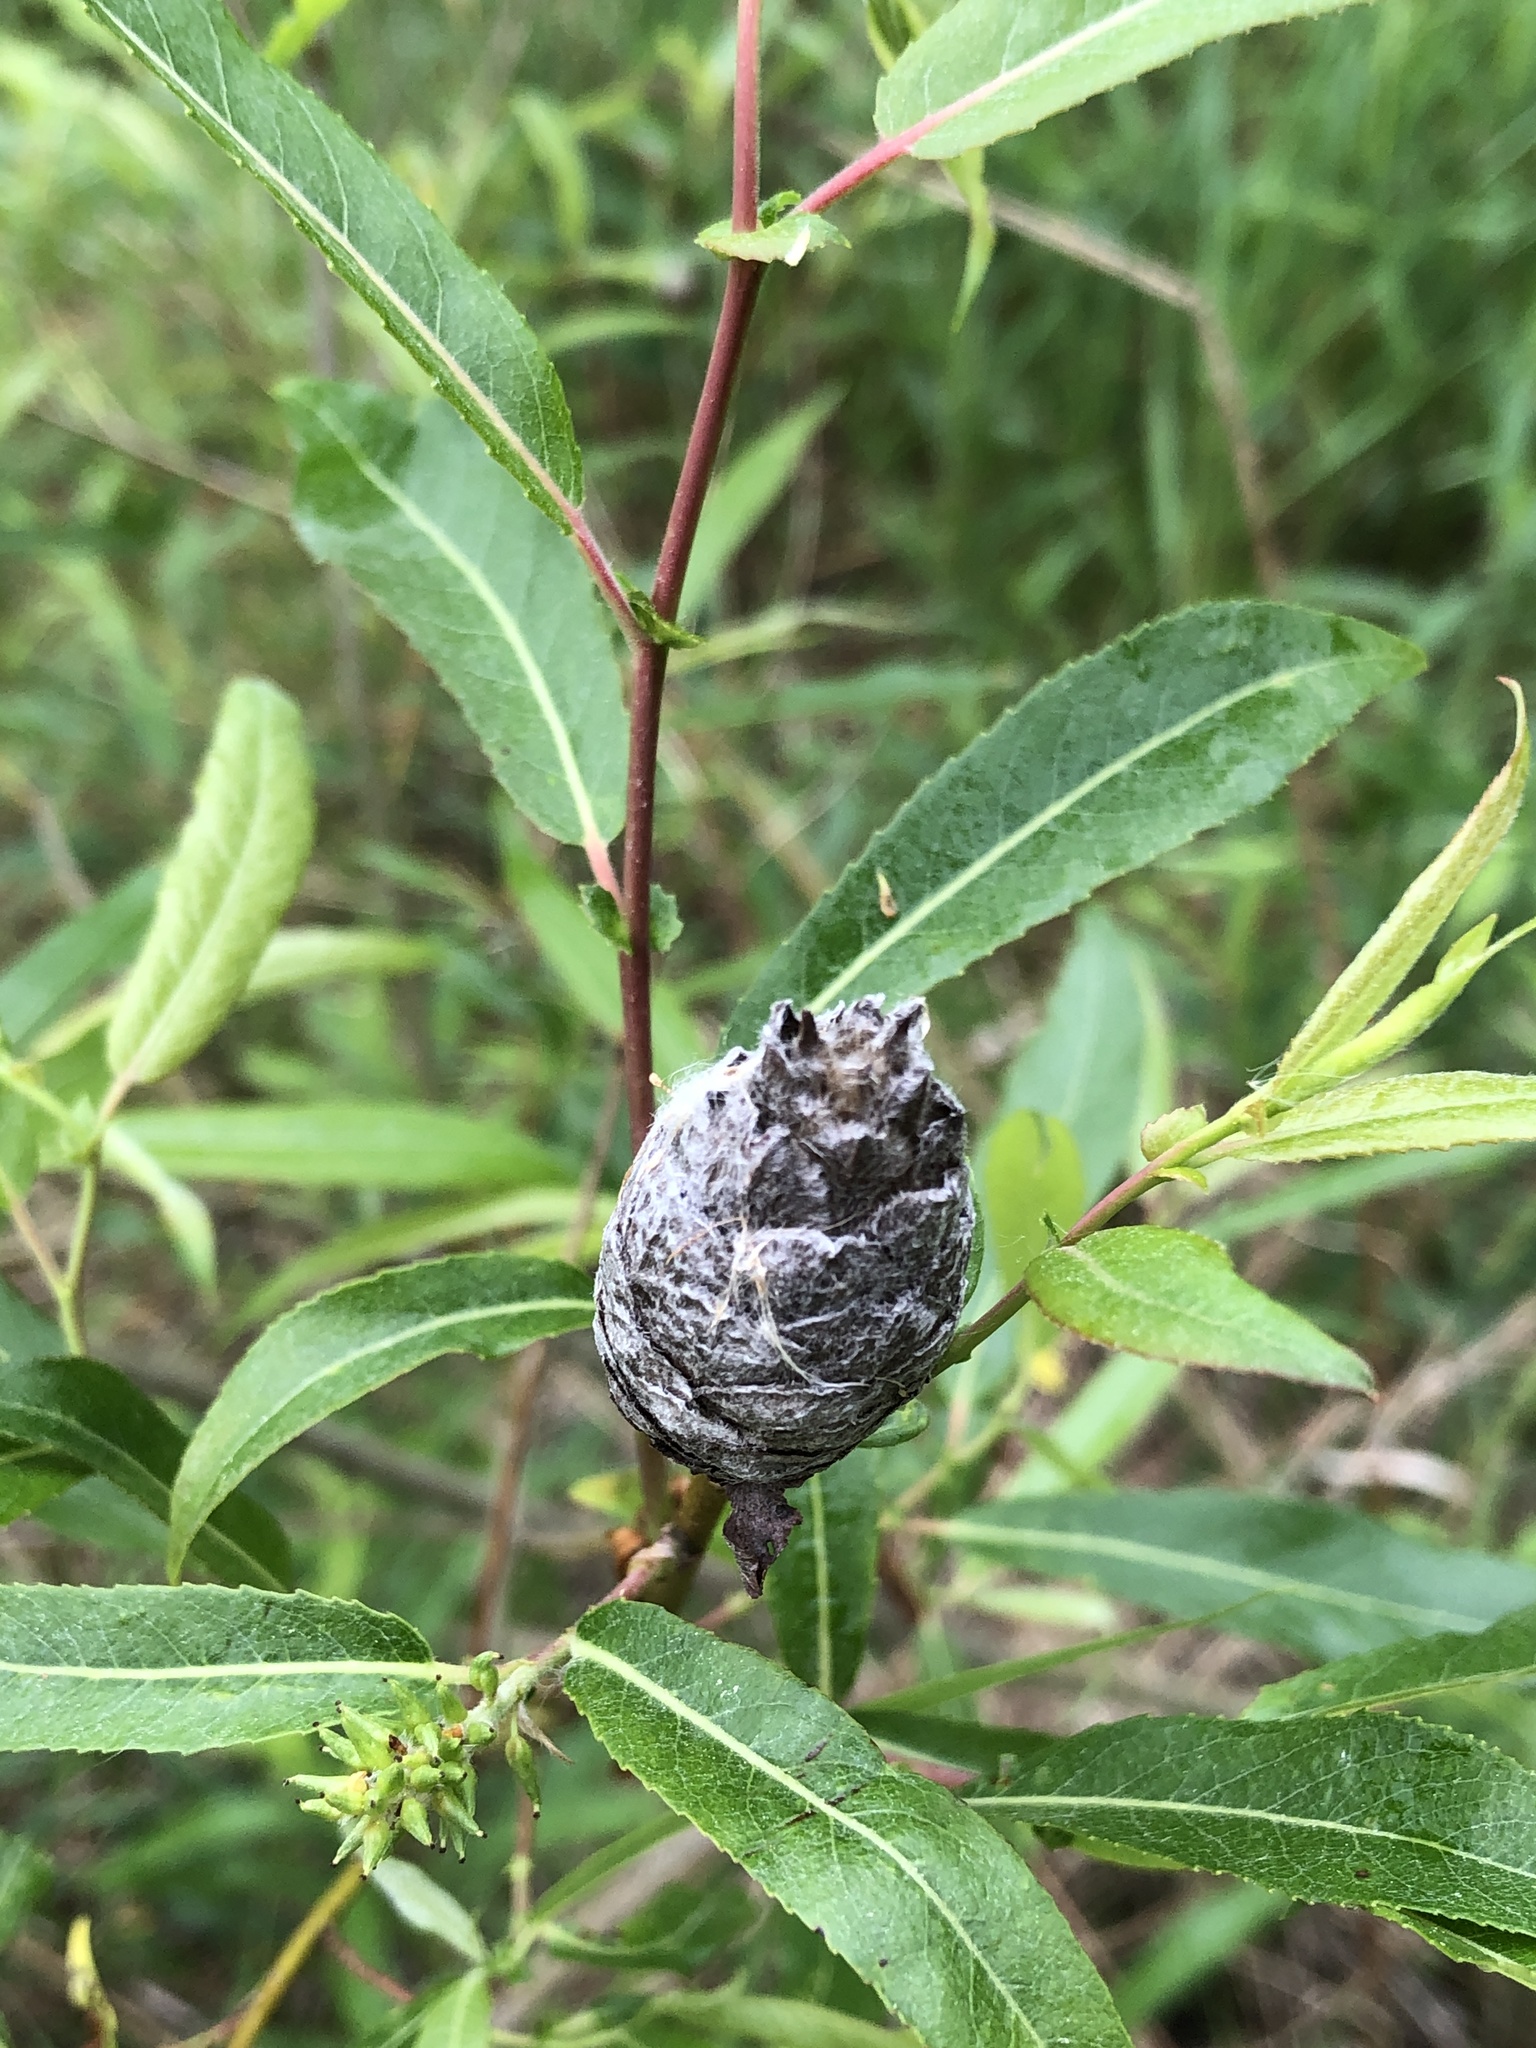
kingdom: Animalia
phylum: Arthropoda
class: Insecta
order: Diptera
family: Cecidomyiidae
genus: Rabdophaga
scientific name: Rabdophaga strobiloides
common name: Willow pinecone gall midge
